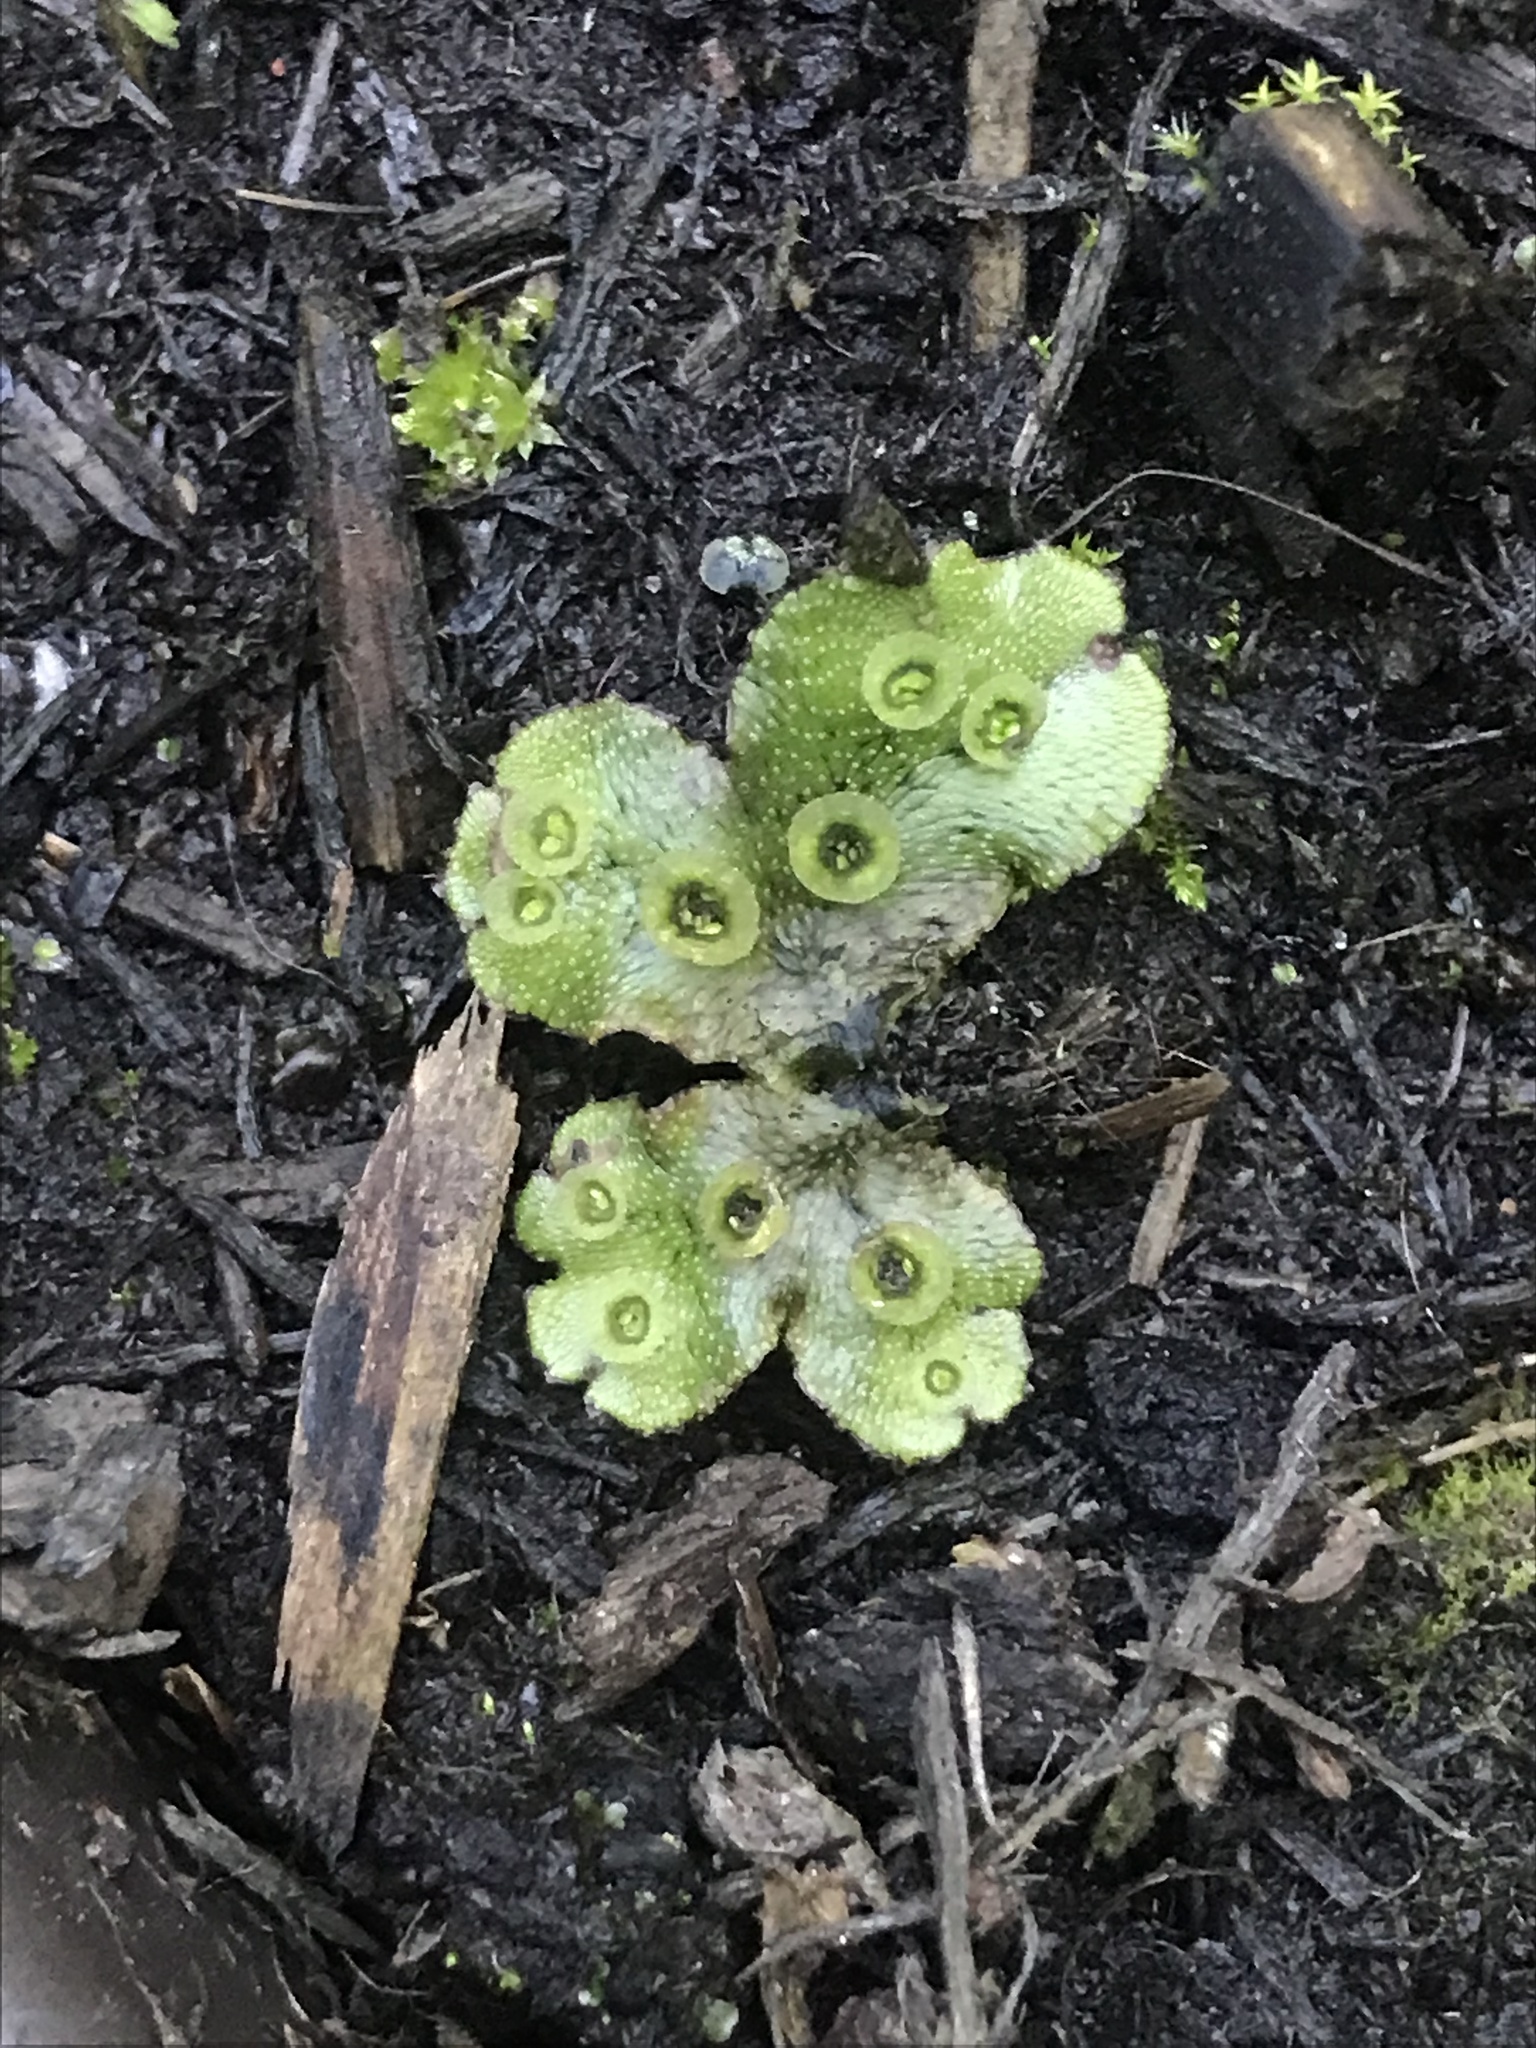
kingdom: Plantae
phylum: Marchantiophyta
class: Marchantiopsida
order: Marchantiales
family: Marchantiaceae
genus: Marchantia
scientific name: Marchantia polymorpha
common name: Common liverwort
